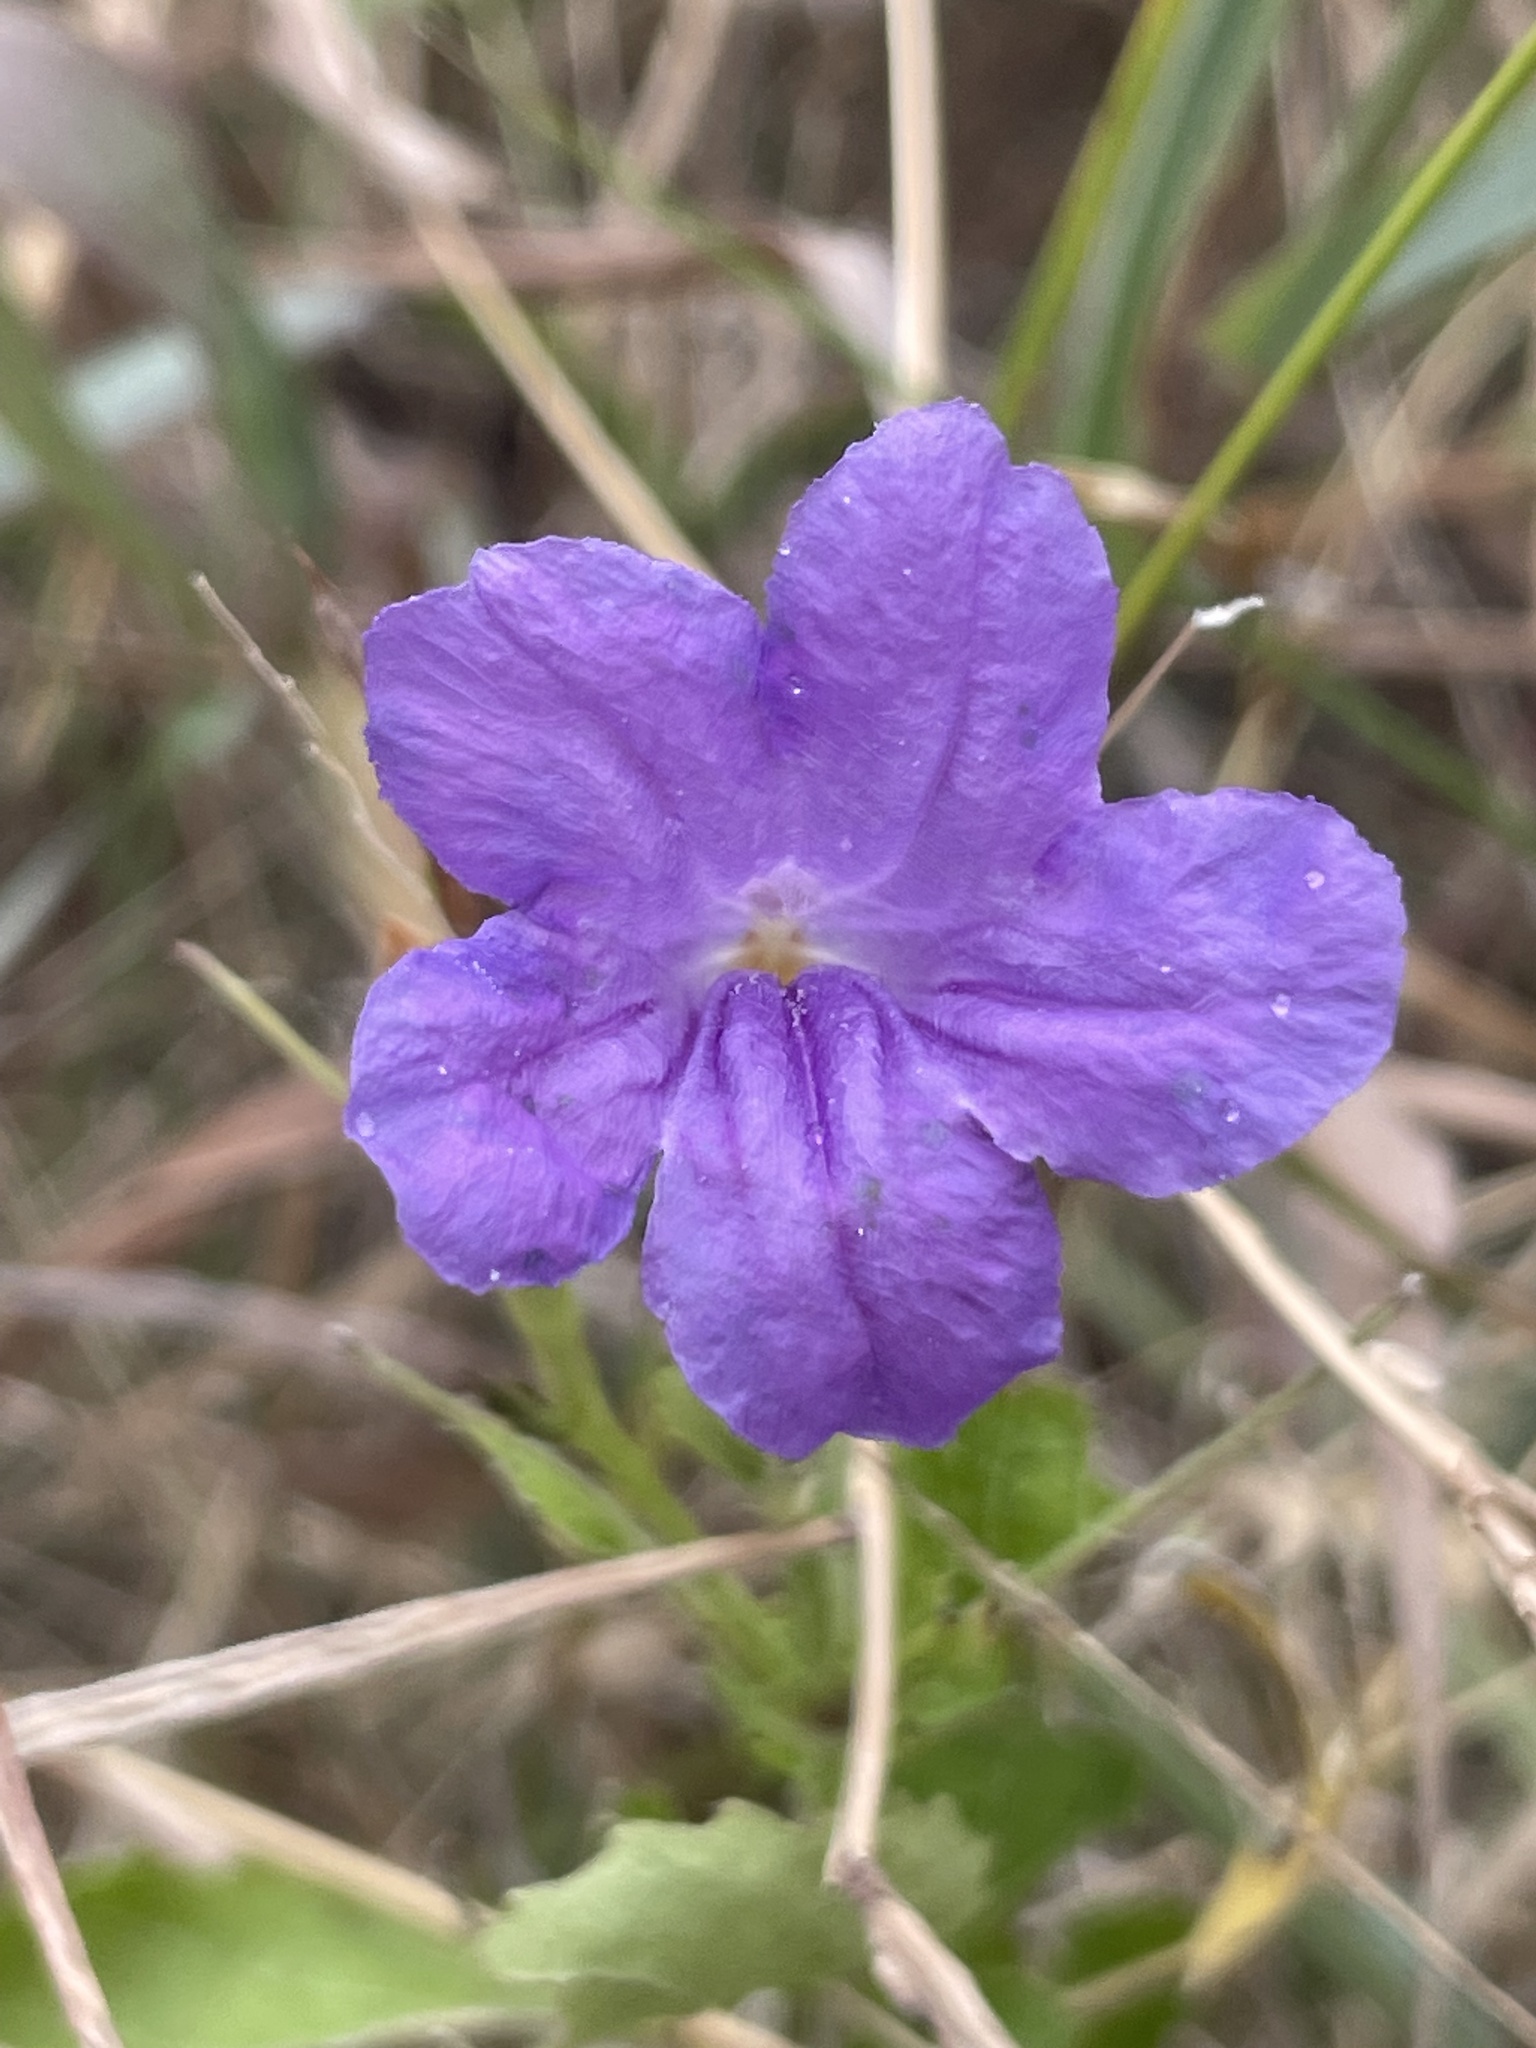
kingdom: Plantae
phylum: Tracheophyta
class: Magnoliopsida
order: Lamiales
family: Acanthaceae
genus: Ruellia
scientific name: Ruellia ciliatiflora
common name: Hairyflower wild petunia
